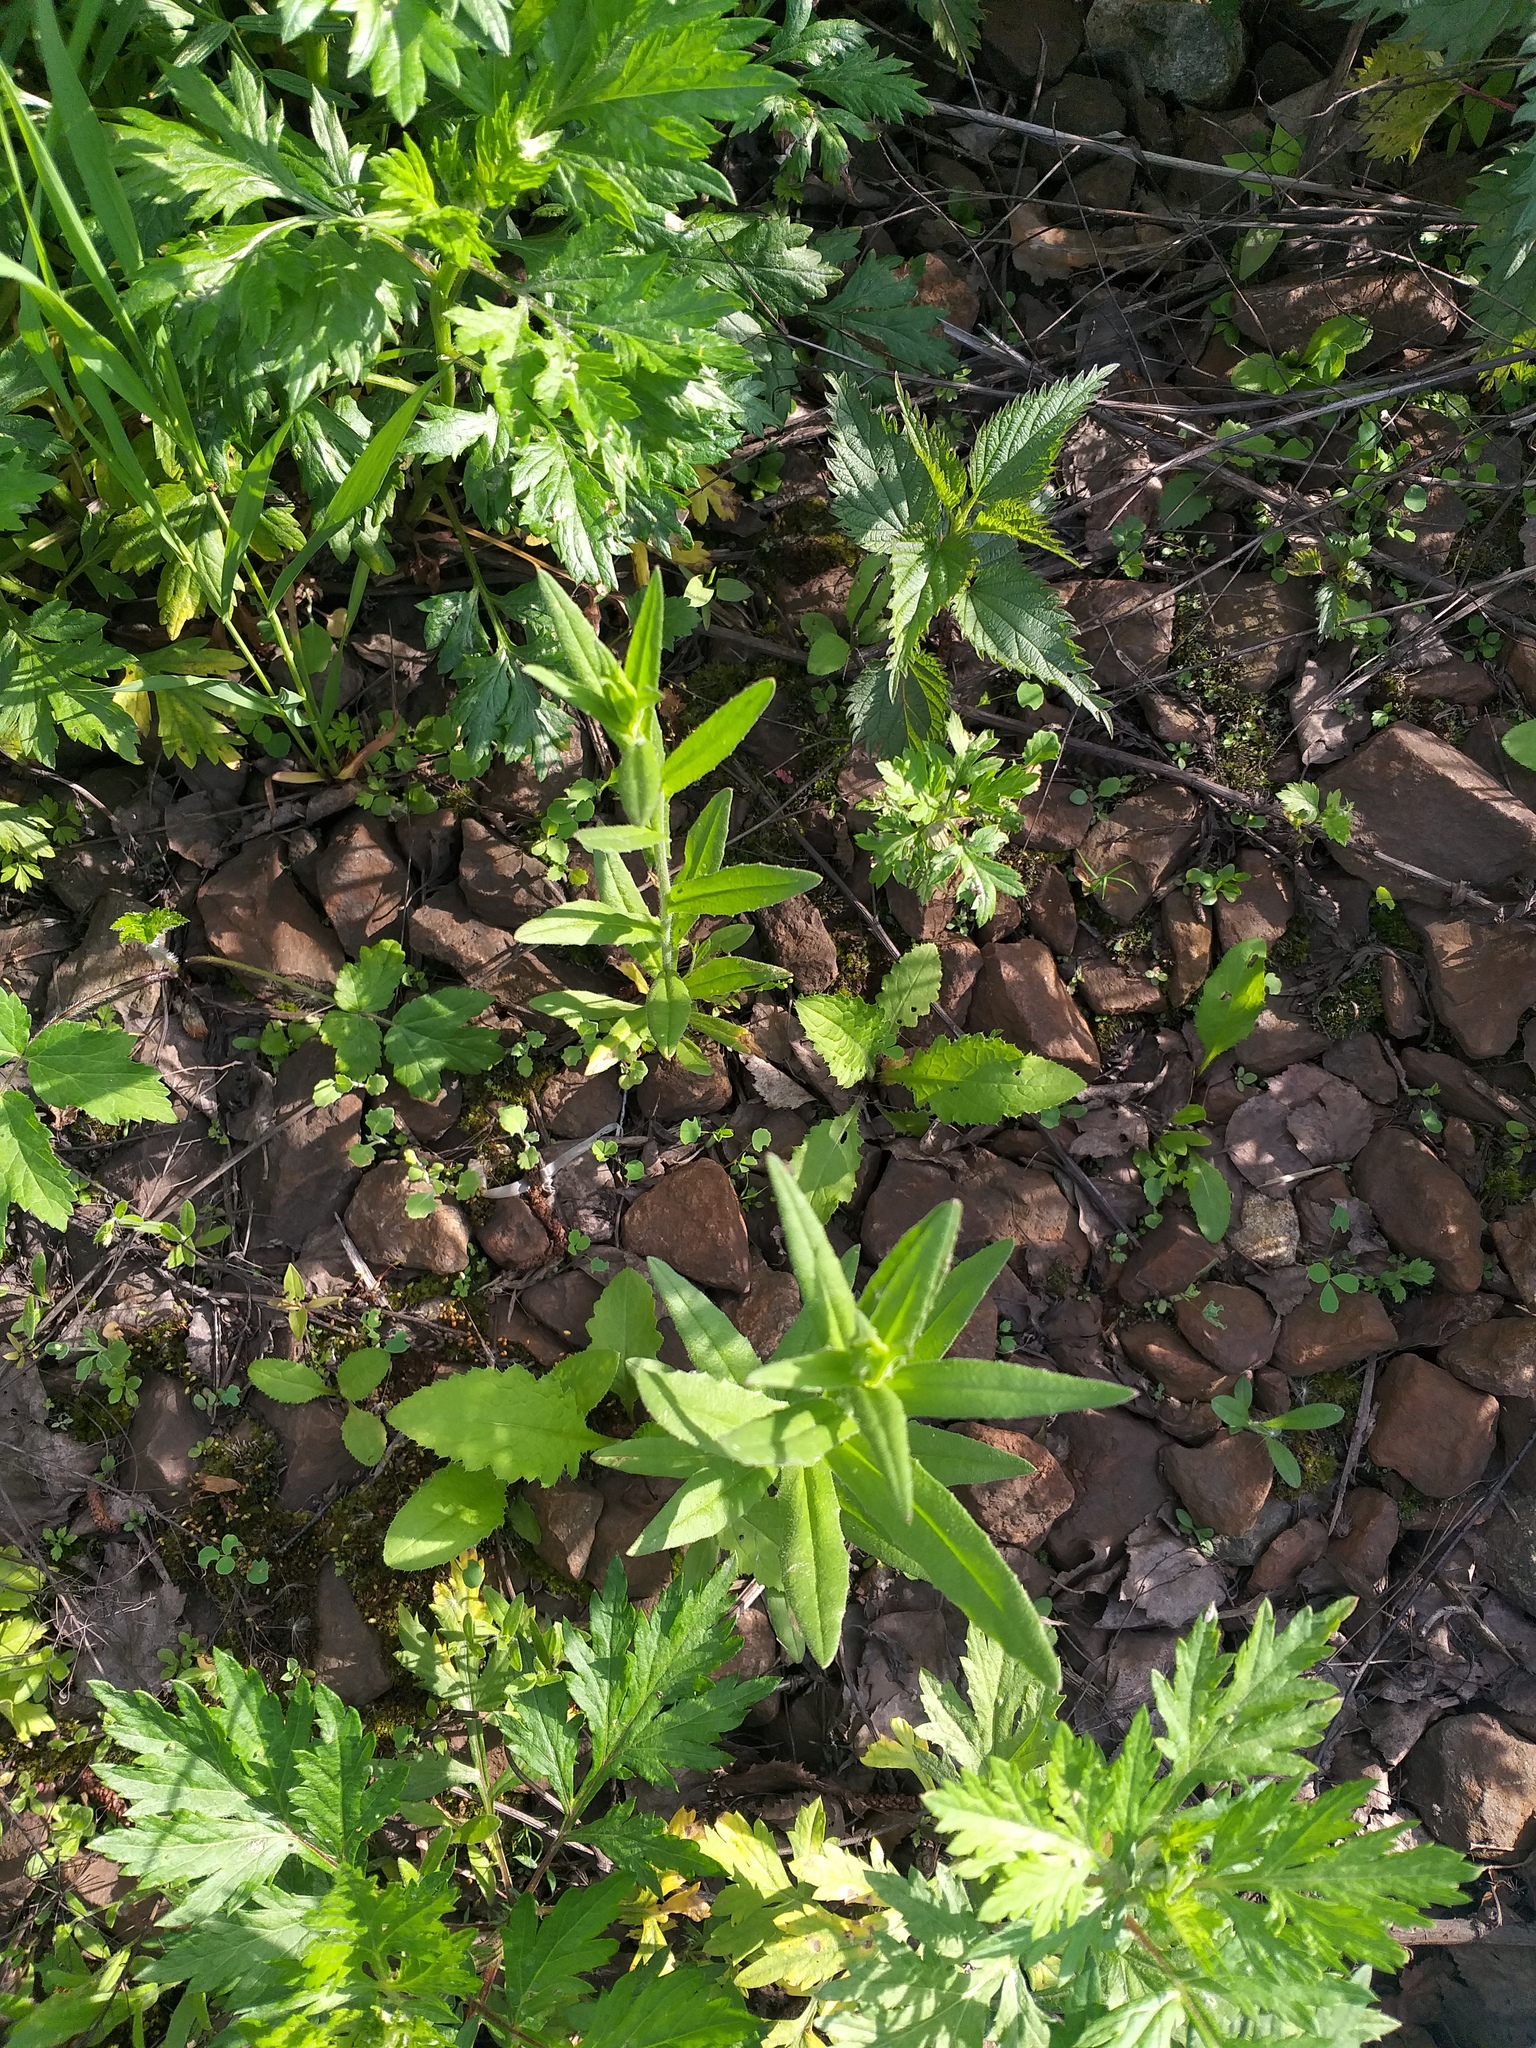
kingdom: Plantae
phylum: Tracheophyta
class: Magnoliopsida
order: Brassicales
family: Brassicaceae
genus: Camelina
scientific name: Camelina microcarpa
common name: Lesser gold-of-pleasure
